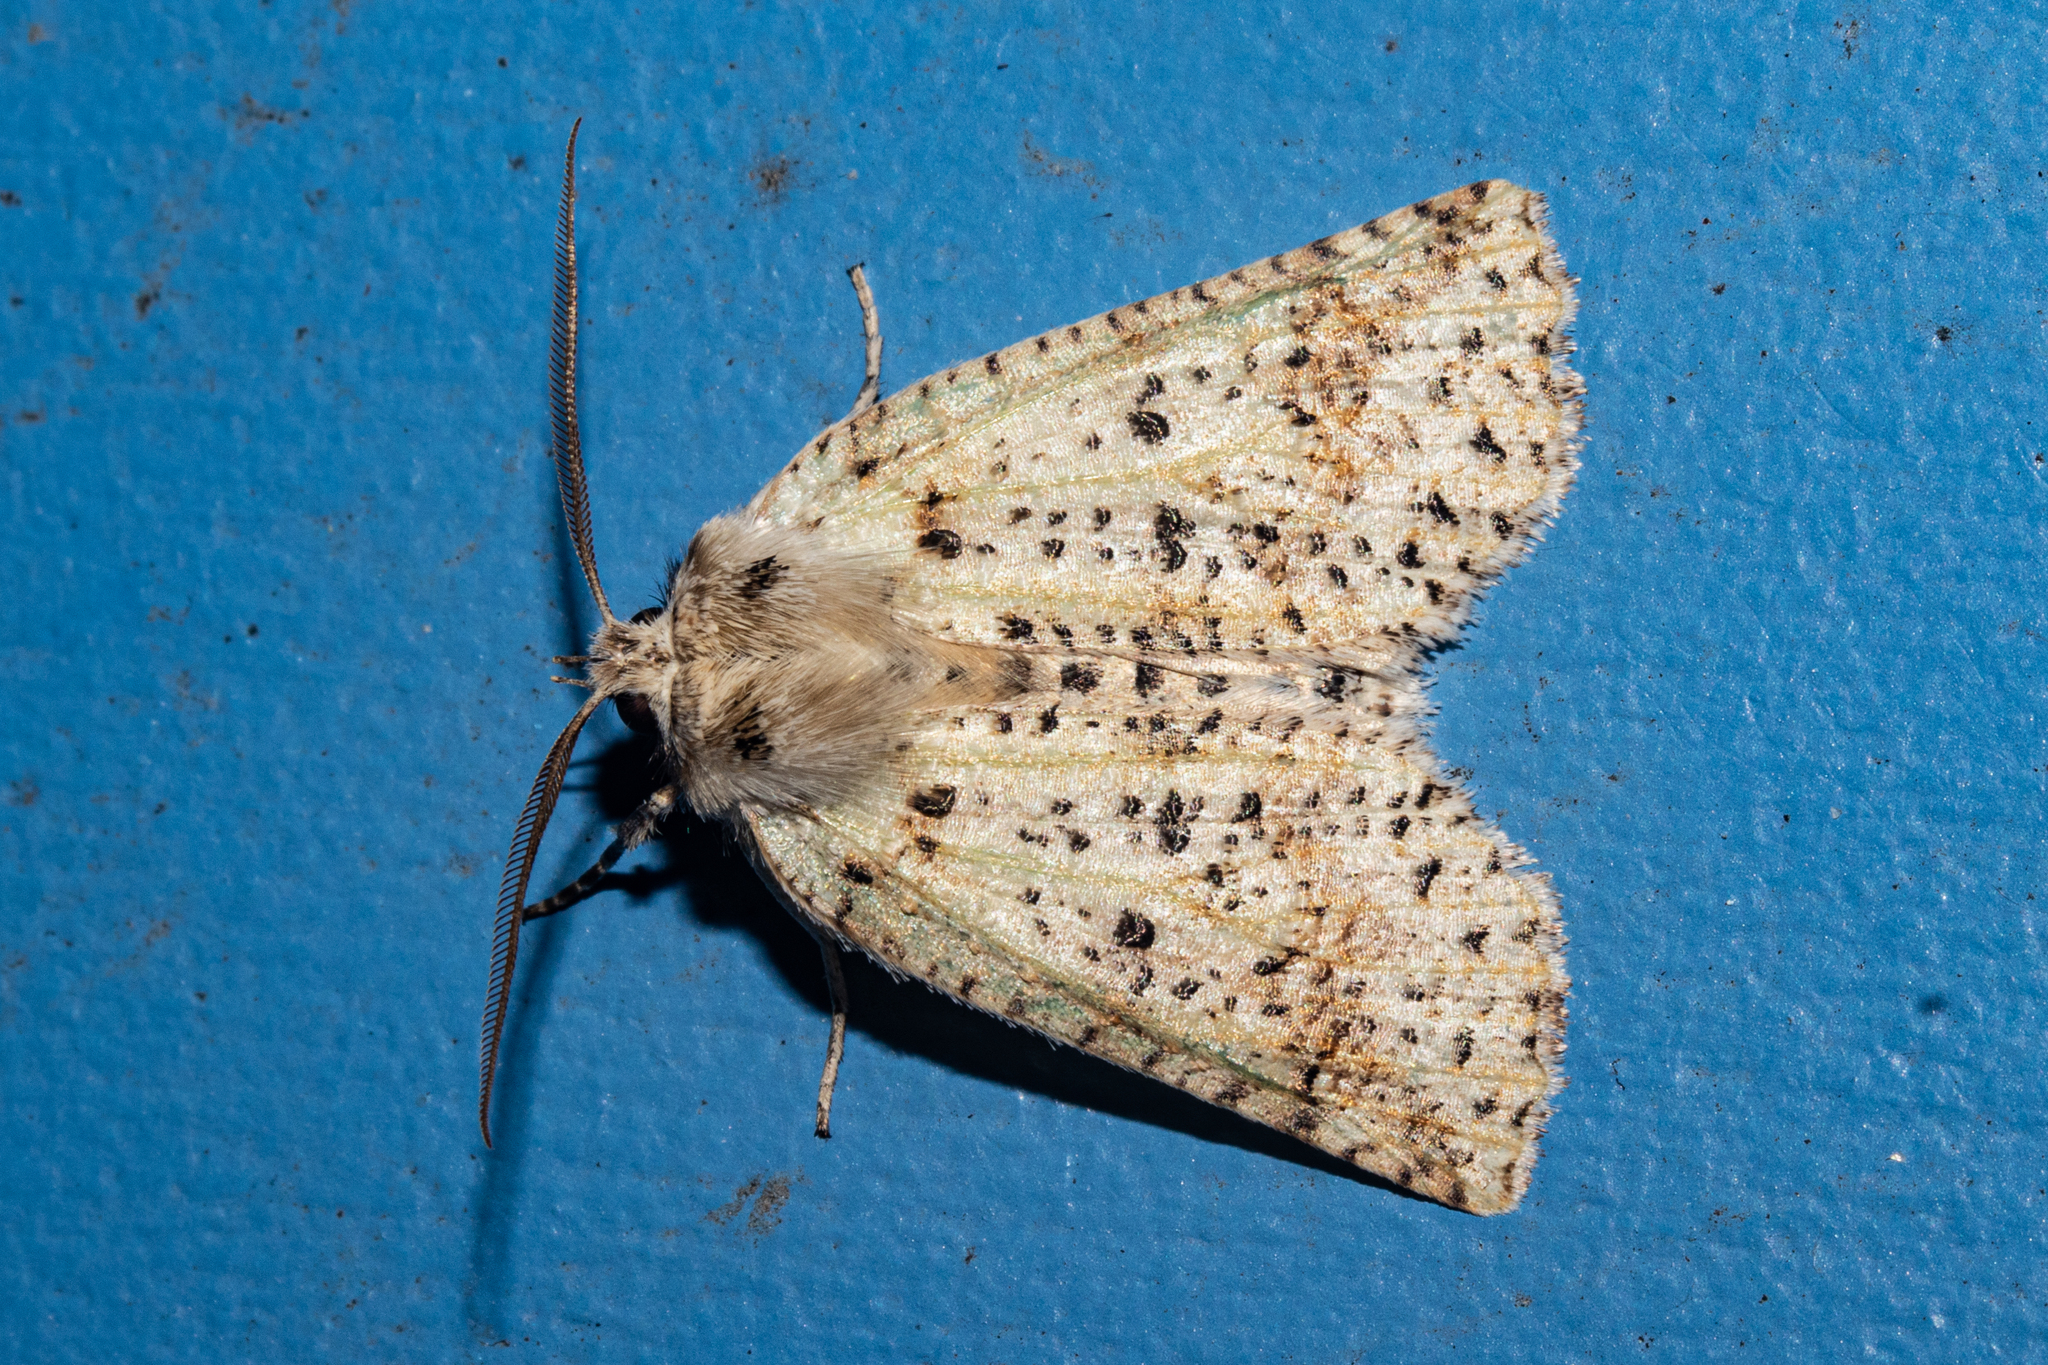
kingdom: Animalia
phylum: Arthropoda
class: Insecta
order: Lepidoptera
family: Geometridae
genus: Declana
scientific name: Declana floccosa
